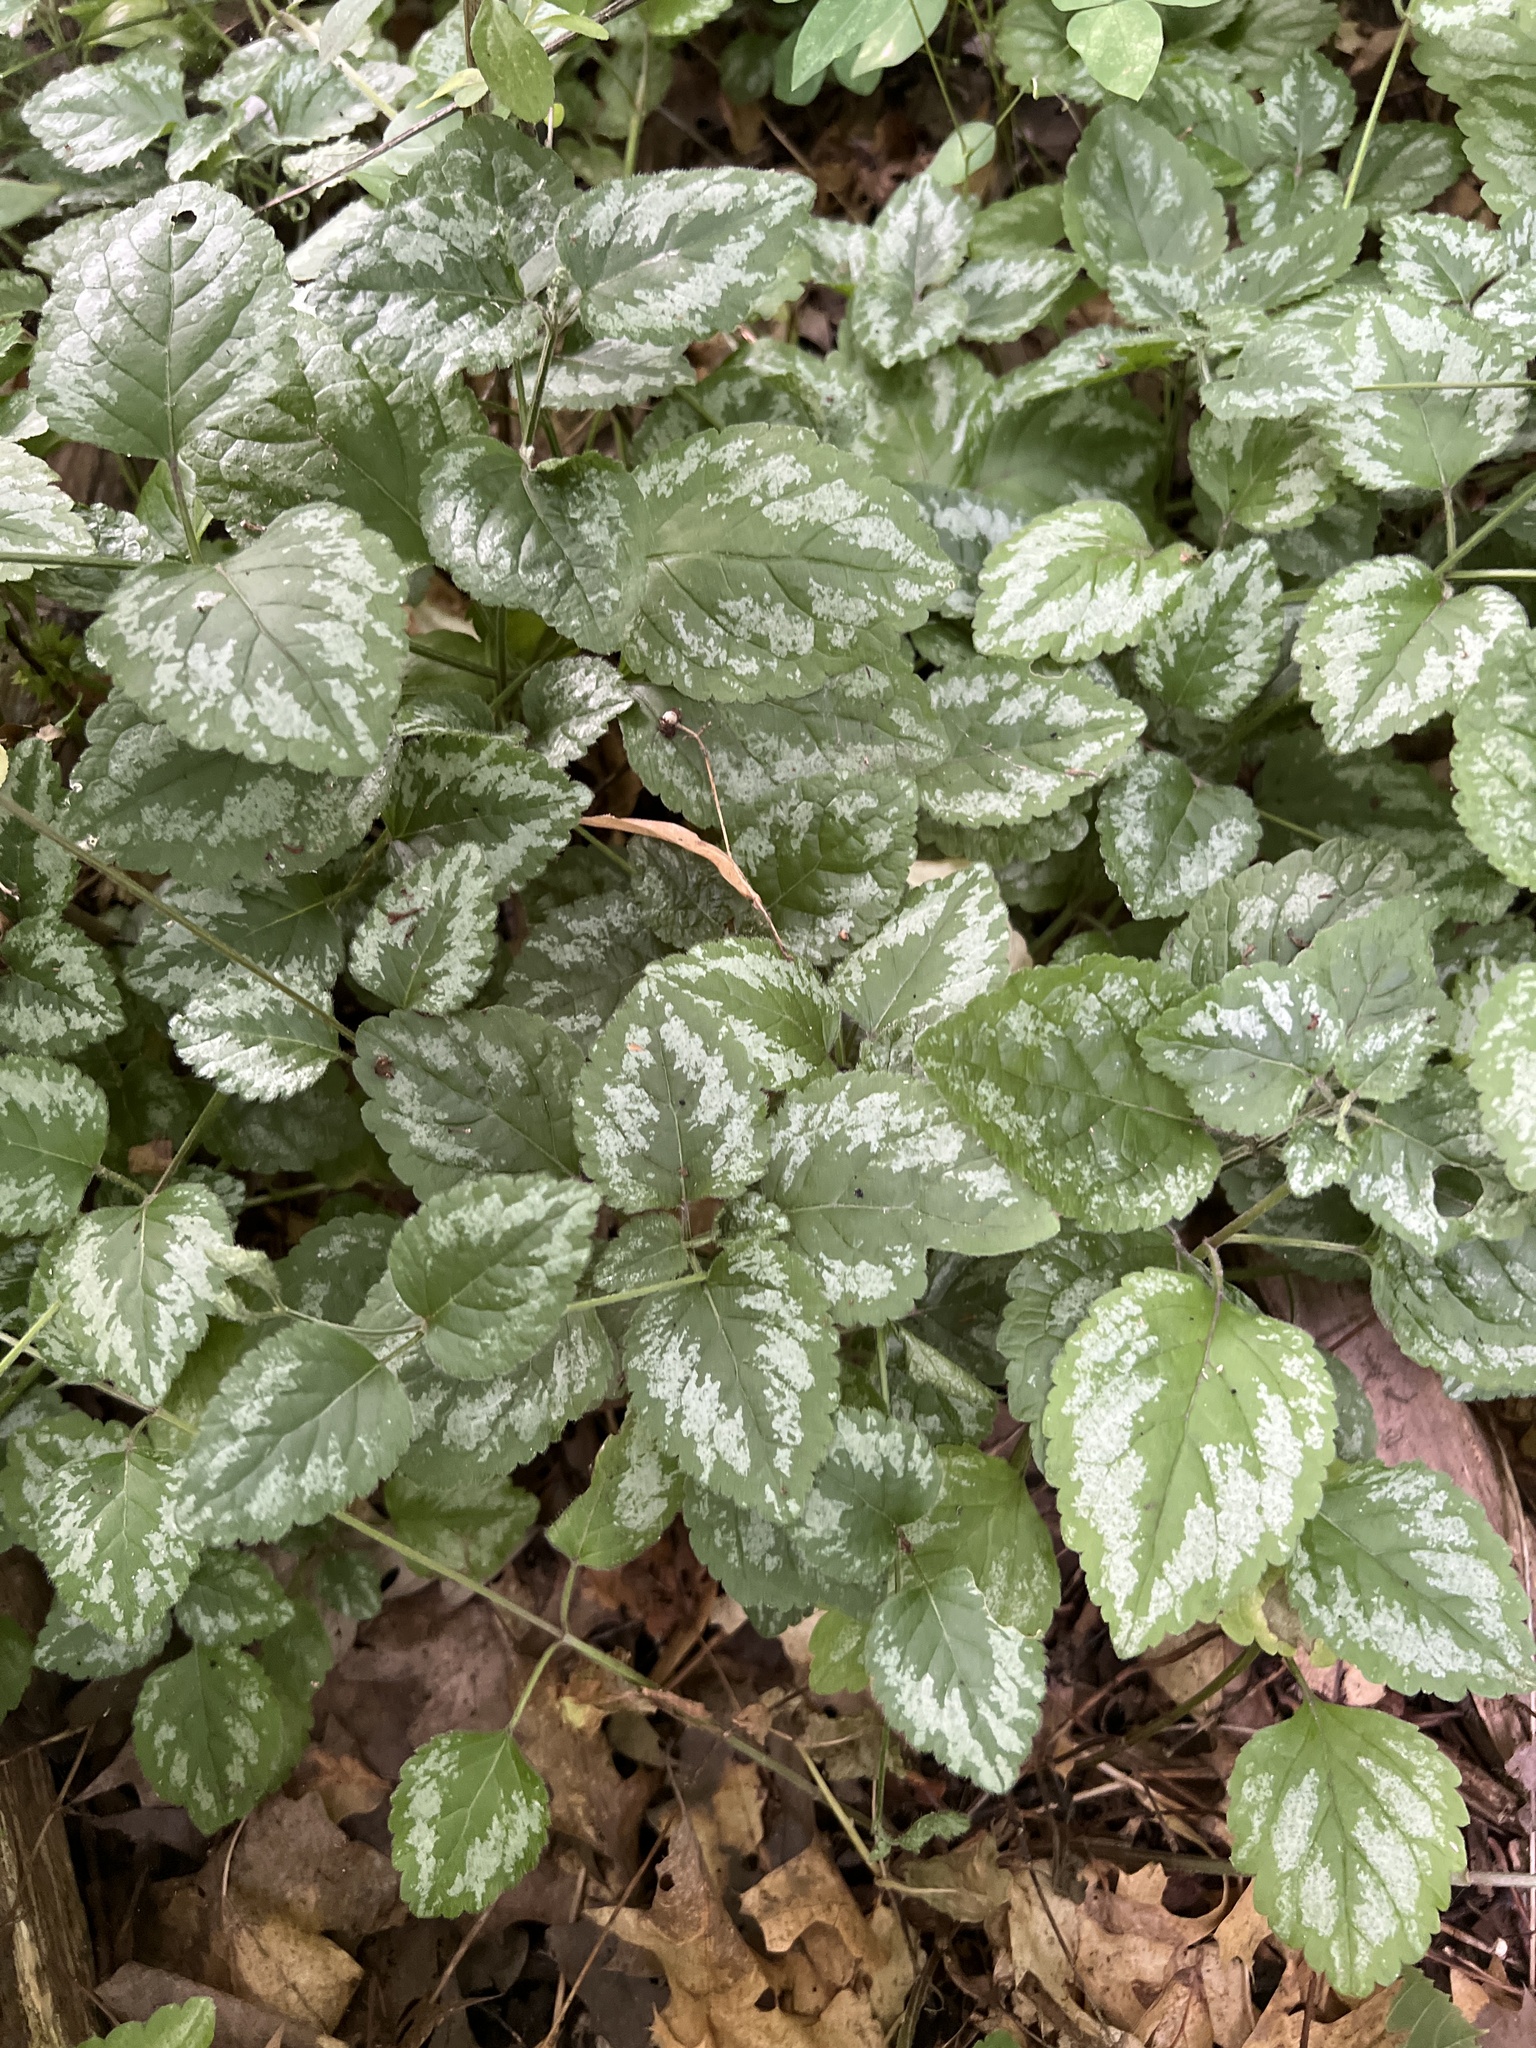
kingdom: Plantae
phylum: Tracheophyta
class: Magnoliopsida
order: Lamiales
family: Lamiaceae
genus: Lamium
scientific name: Lamium galeobdolon
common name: Yellow archangel
